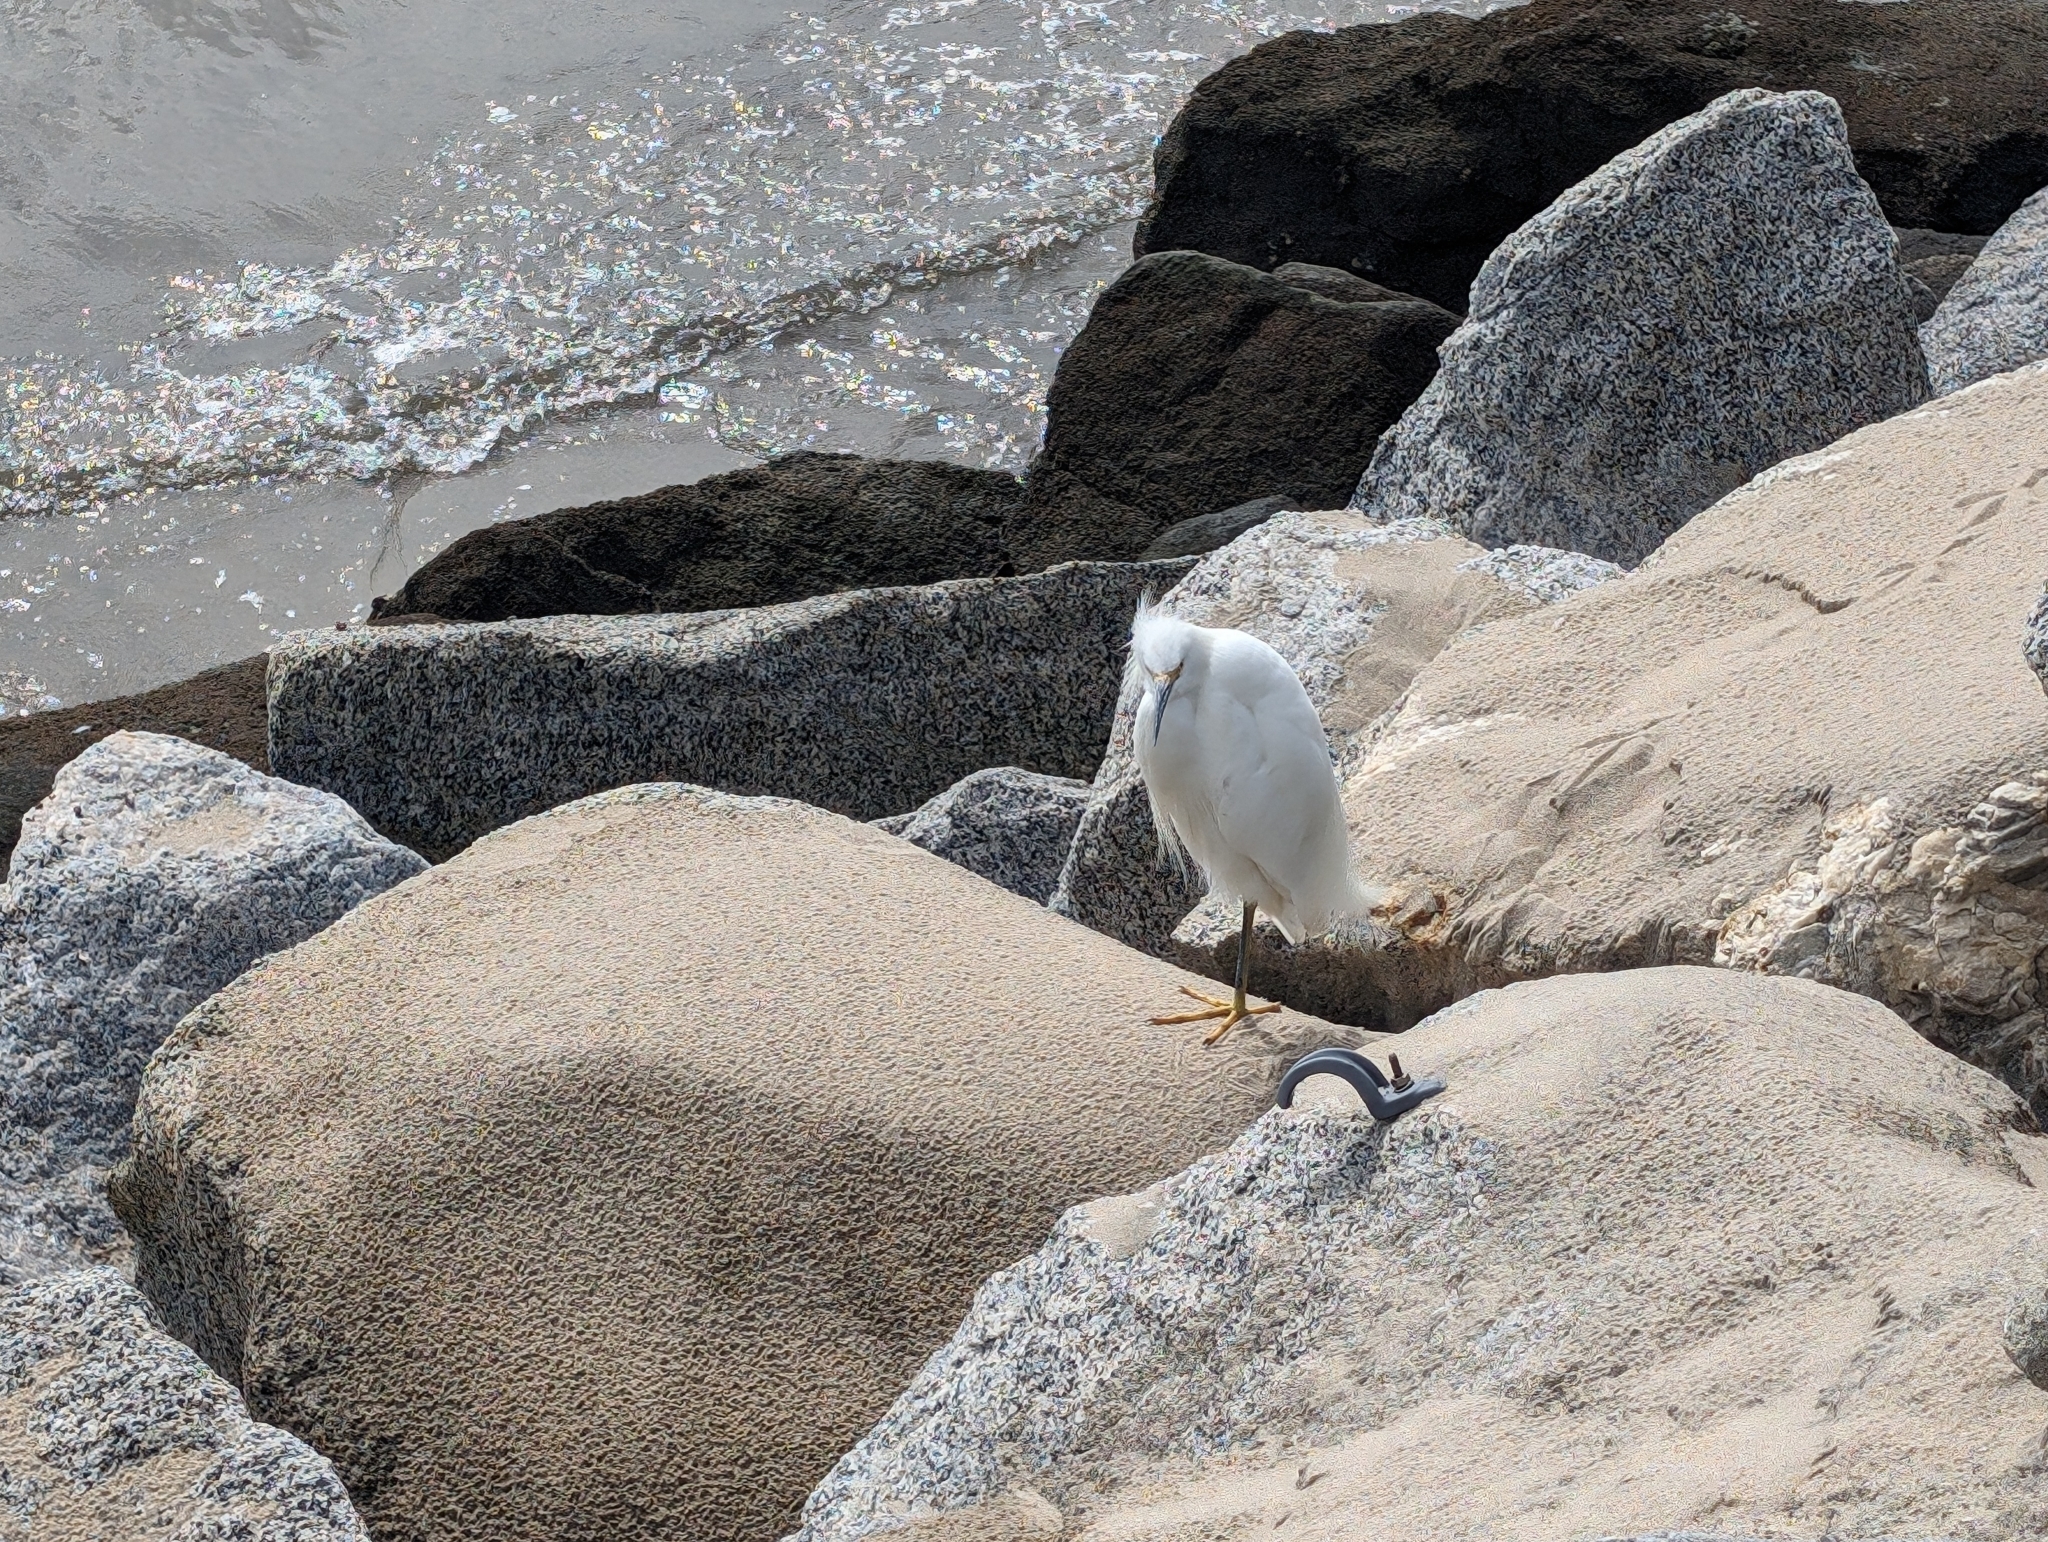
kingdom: Animalia
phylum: Chordata
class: Aves
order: Pelecaniformes
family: Ardeidae
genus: Egretta
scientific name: Egretta thula
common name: Snowy egret
